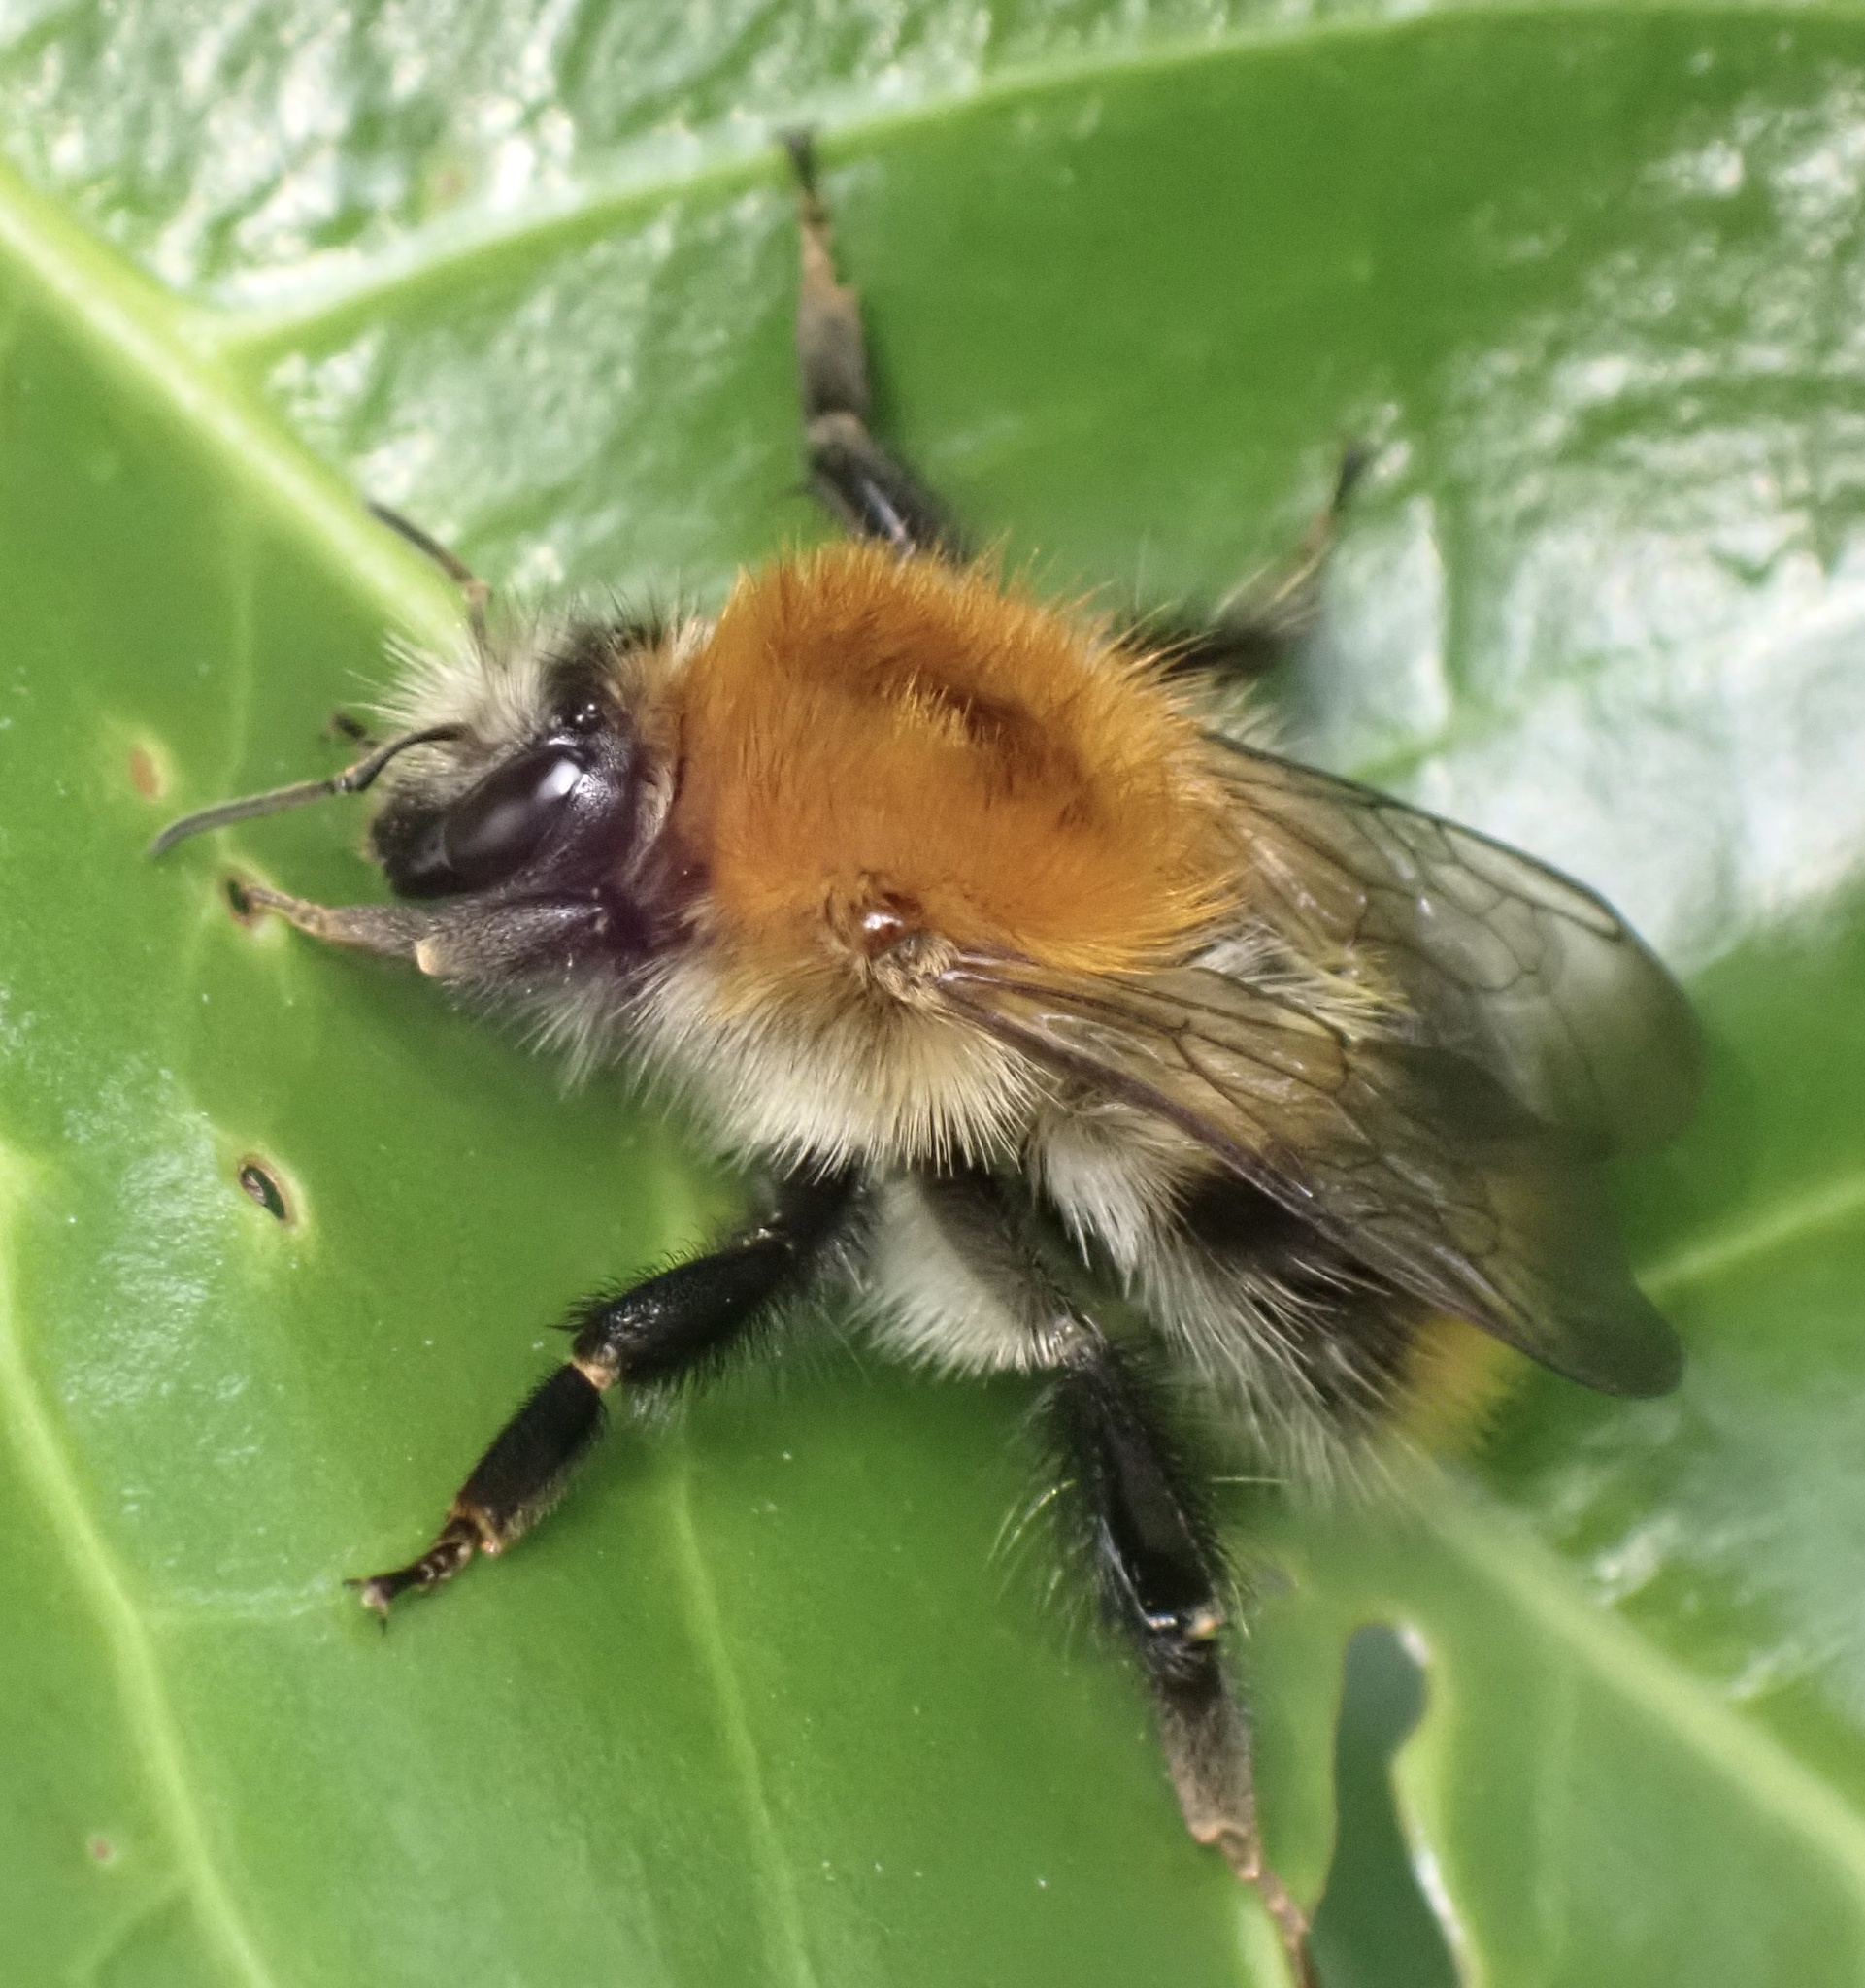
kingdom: Animalia
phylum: Arthropoda
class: Insecta
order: Hymenoptera
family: Apidae
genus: Bombus
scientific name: Bombus pascuorum
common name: Common carder bee
